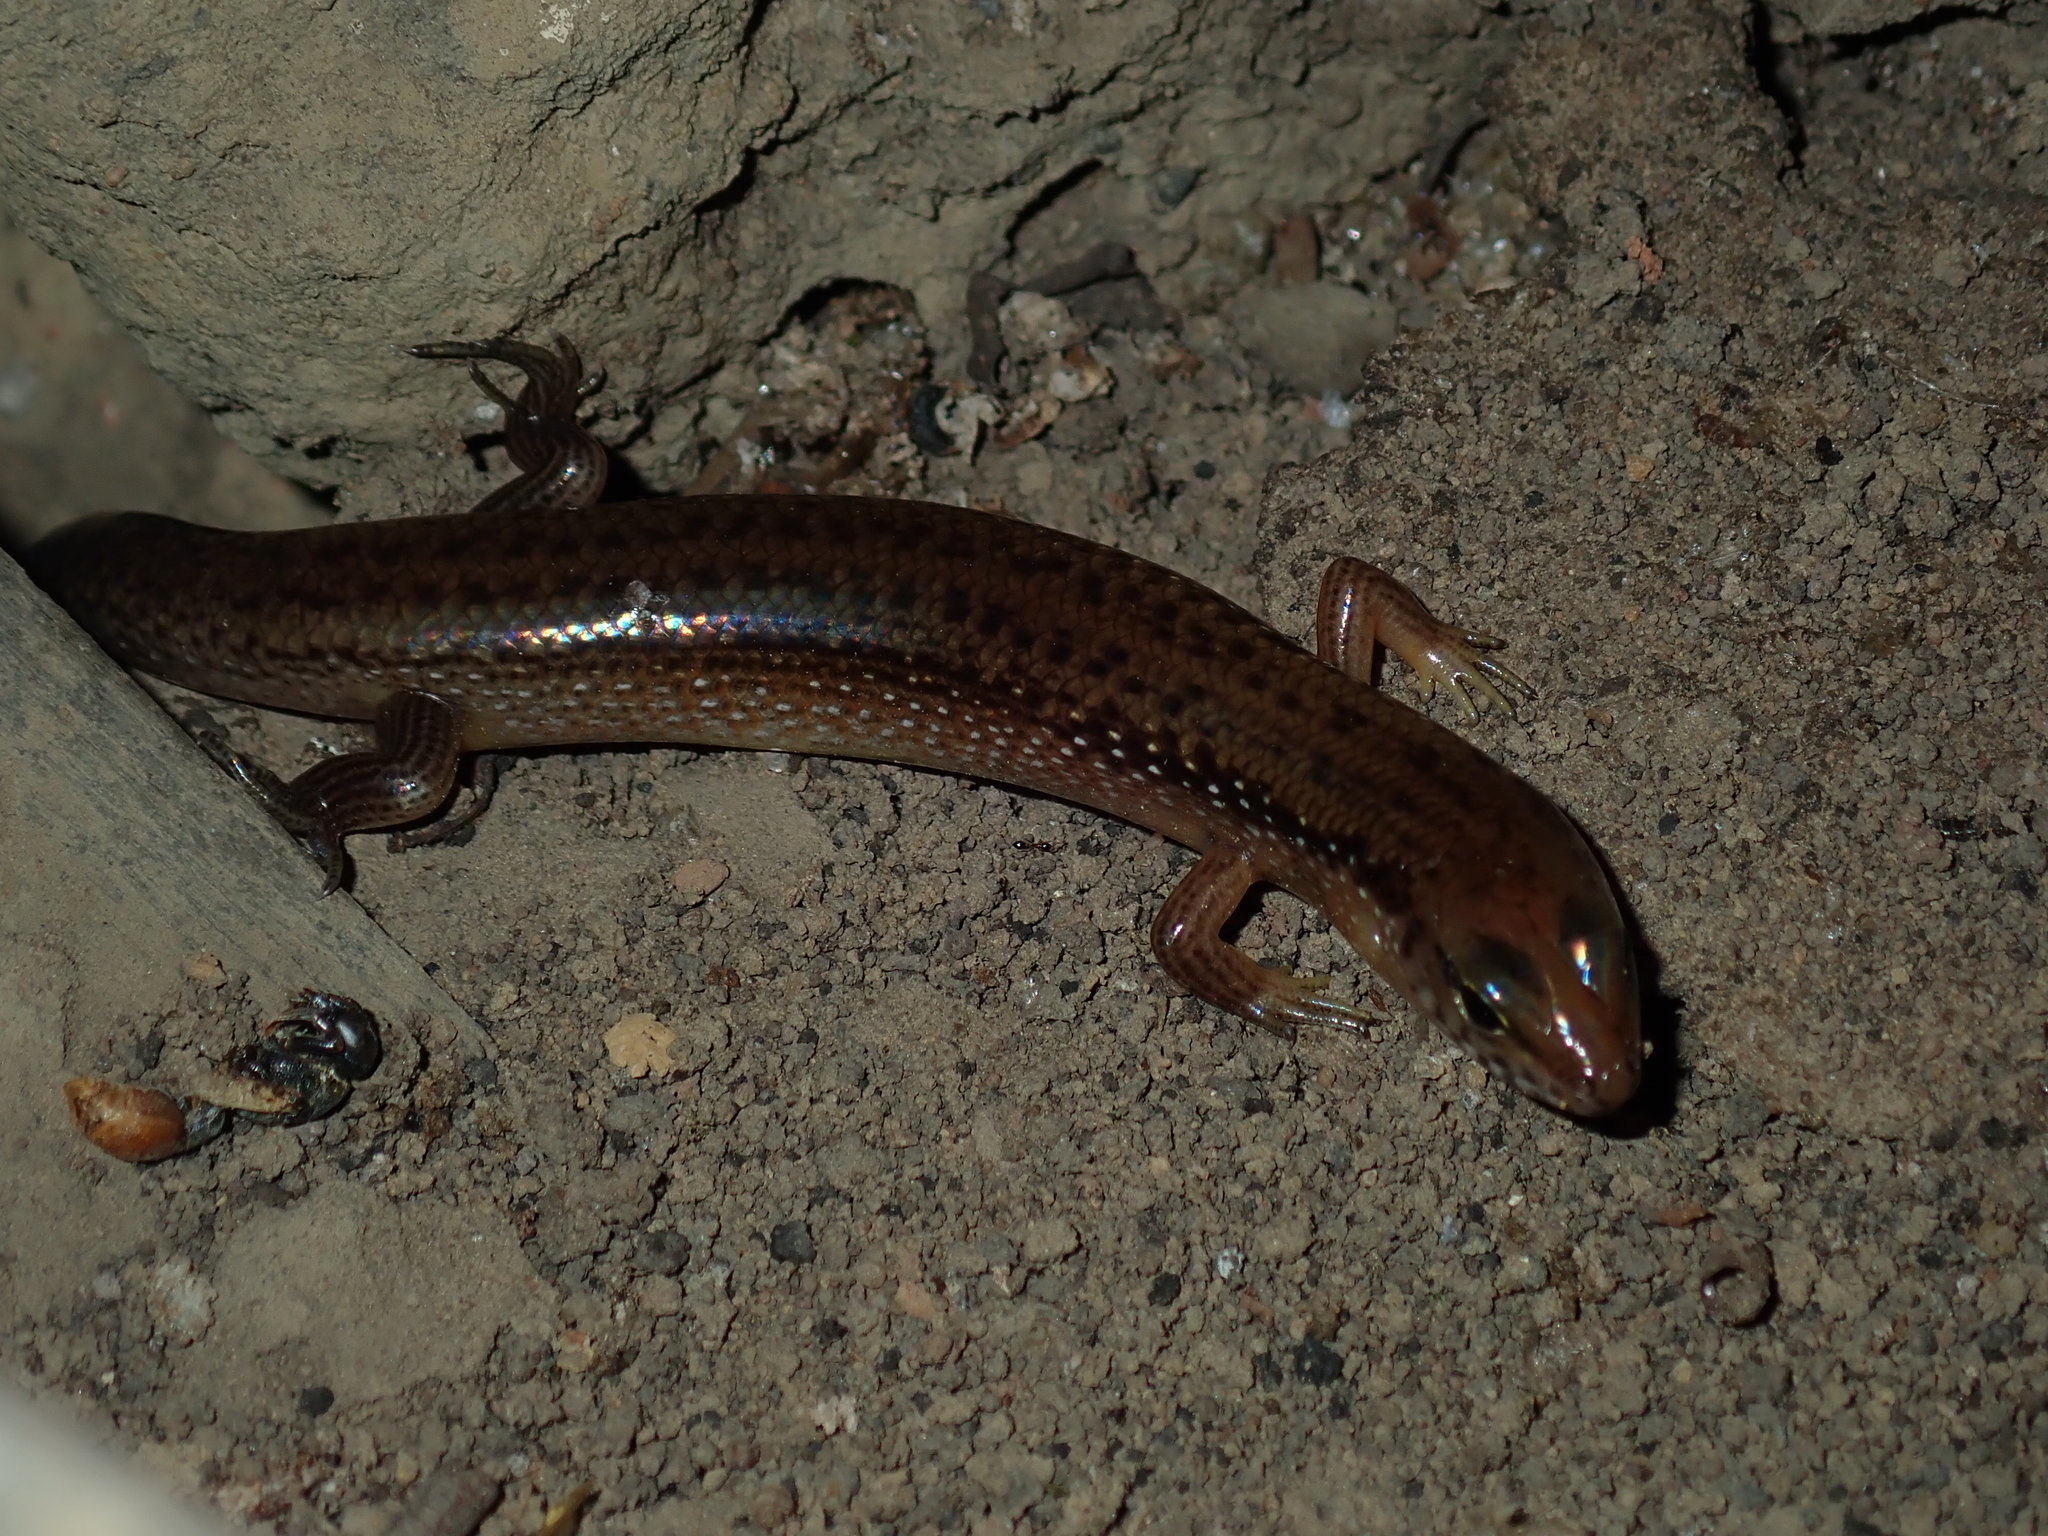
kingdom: Animalia
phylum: Chordata
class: Squamata
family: Scincidae
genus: Eremiascincus
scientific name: Eremiascincus douglasi
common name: Orange-sided bar-lipped skink
